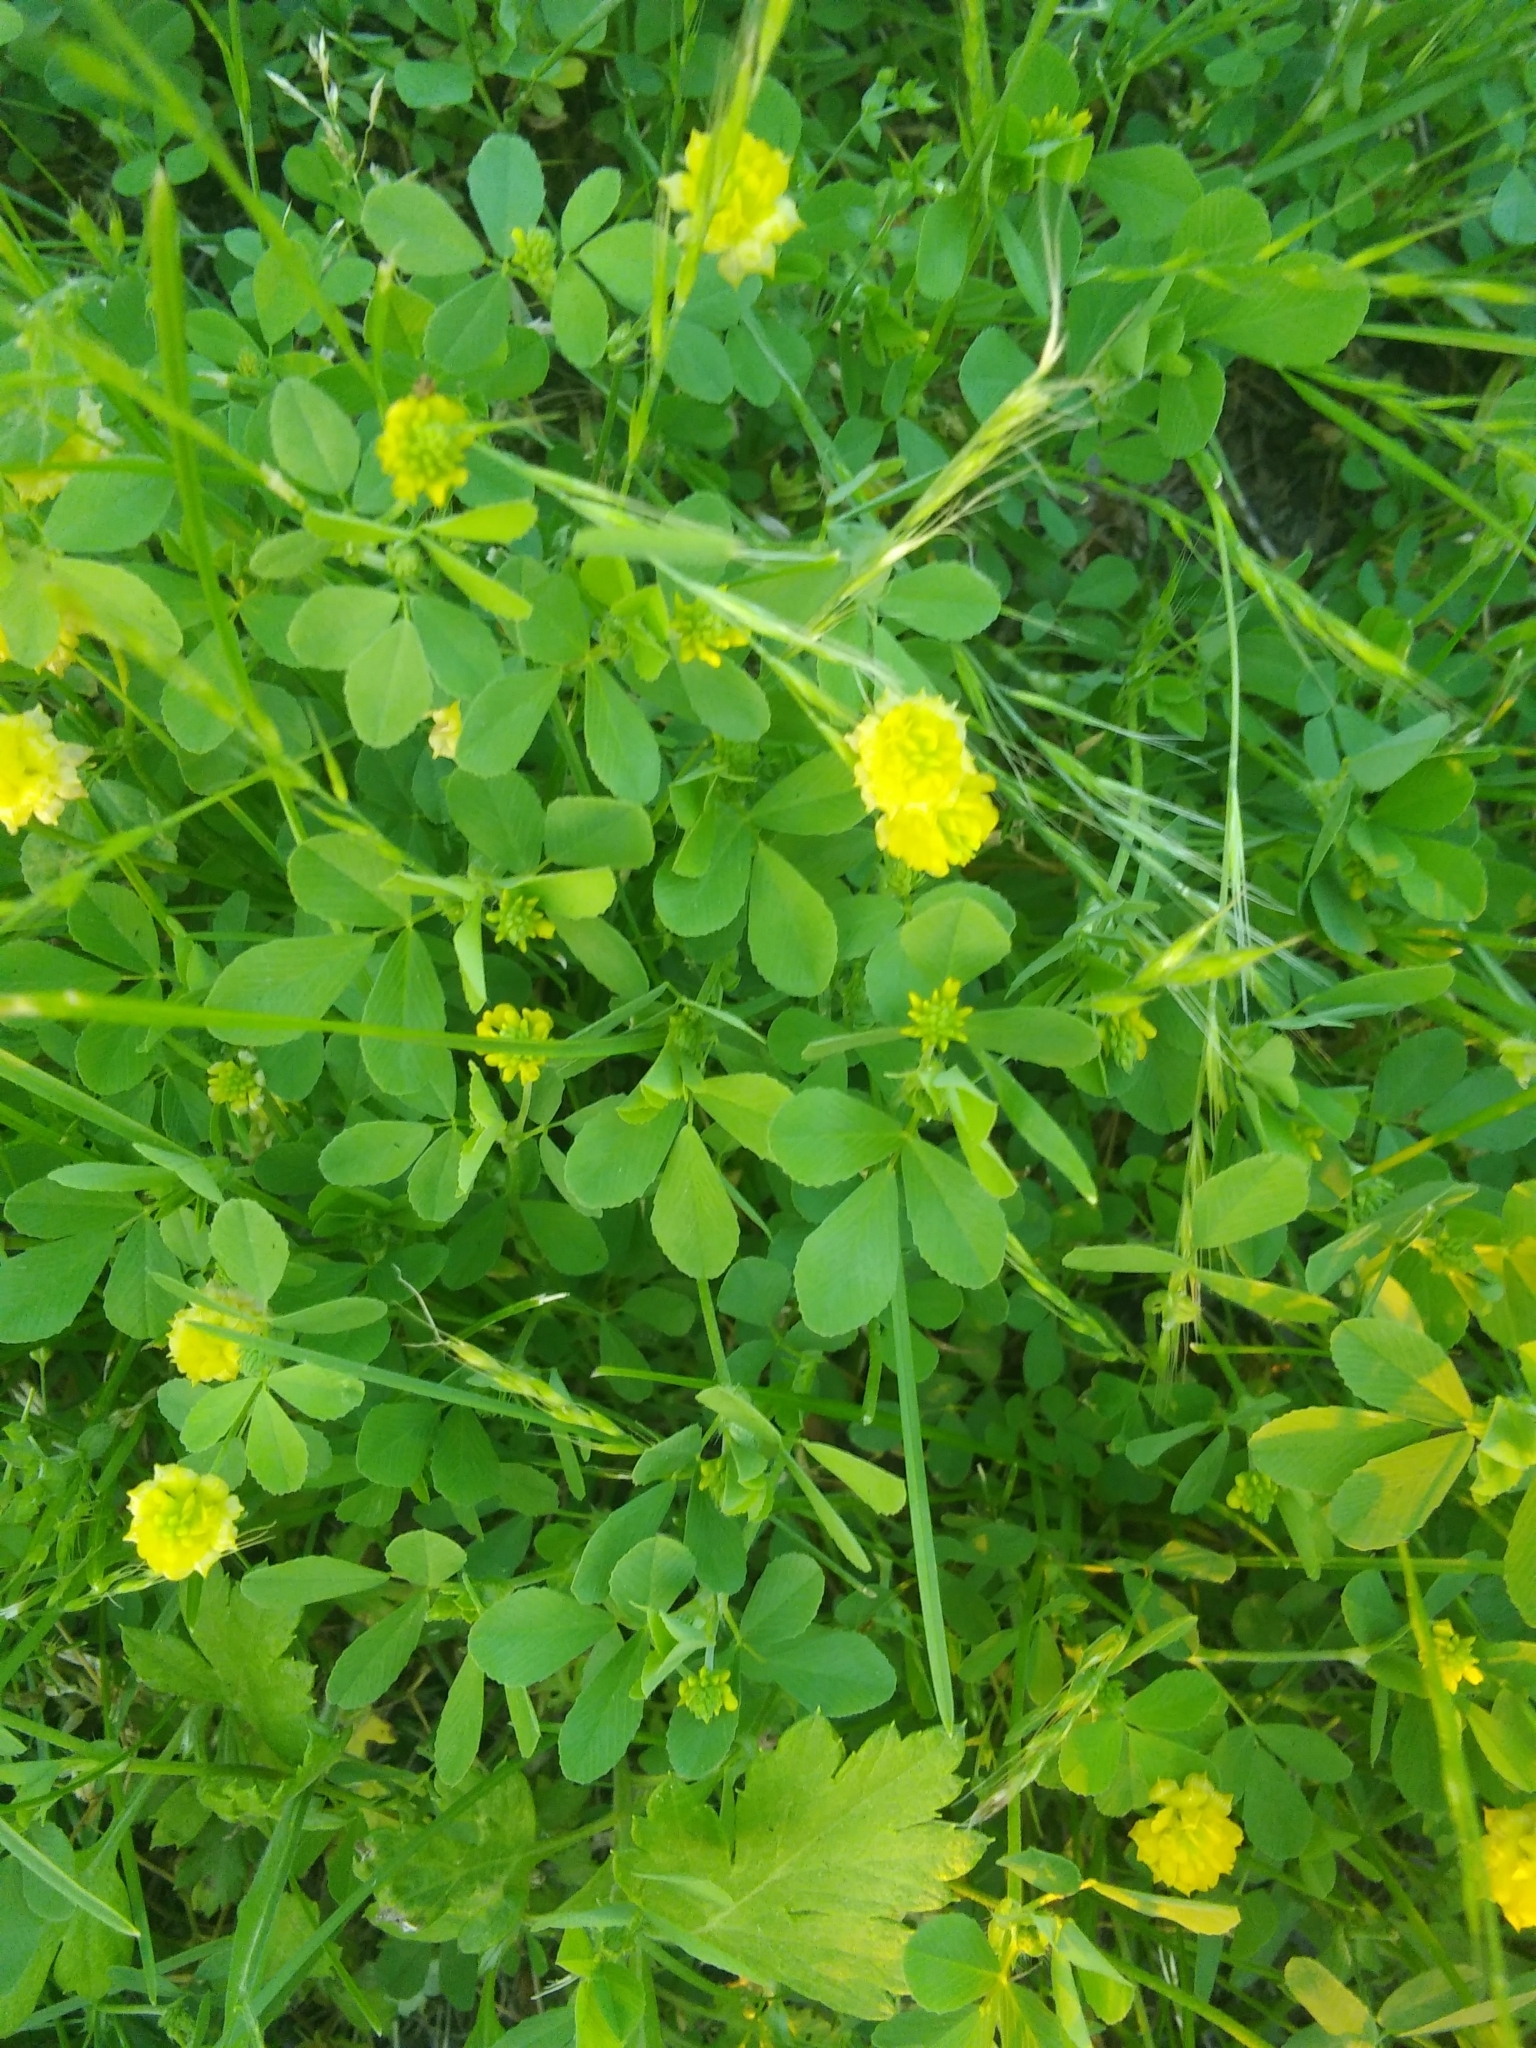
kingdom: Plantae
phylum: Tracheophyta
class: Magnoliopsida
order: Fabales
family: Fabaceae
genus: Trifolium
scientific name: Trifolium campestre
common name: Field clover
